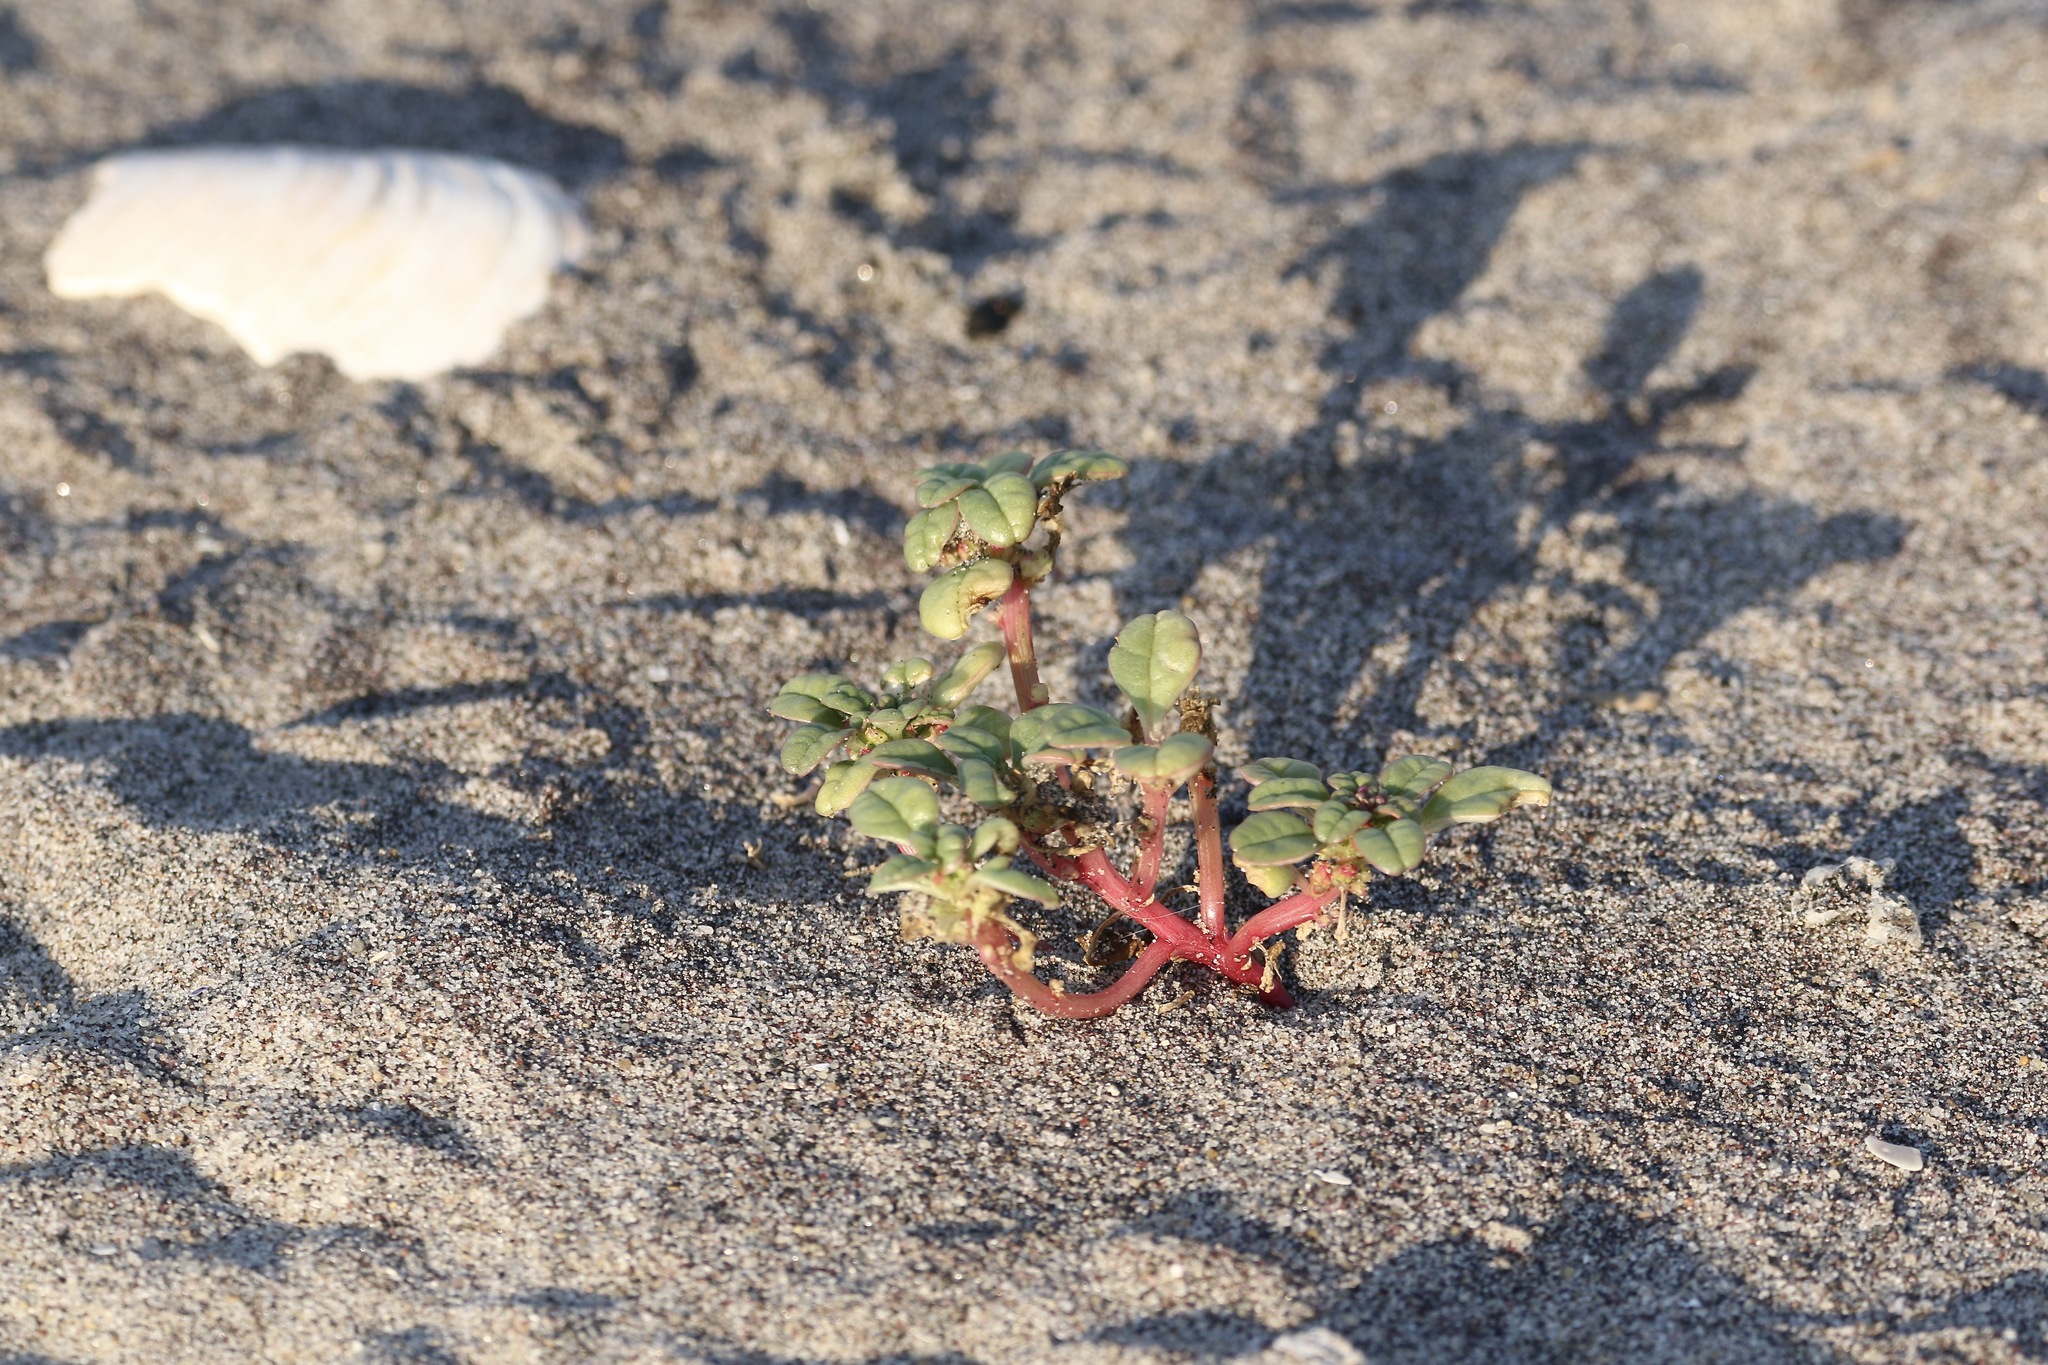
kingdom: Plantae
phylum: Tracheophyta
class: Magnoliopsida
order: Caryophyllales
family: Amaranthaceae
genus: Amaranthus
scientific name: Amaranthus pumilus
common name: Coast amaranth
